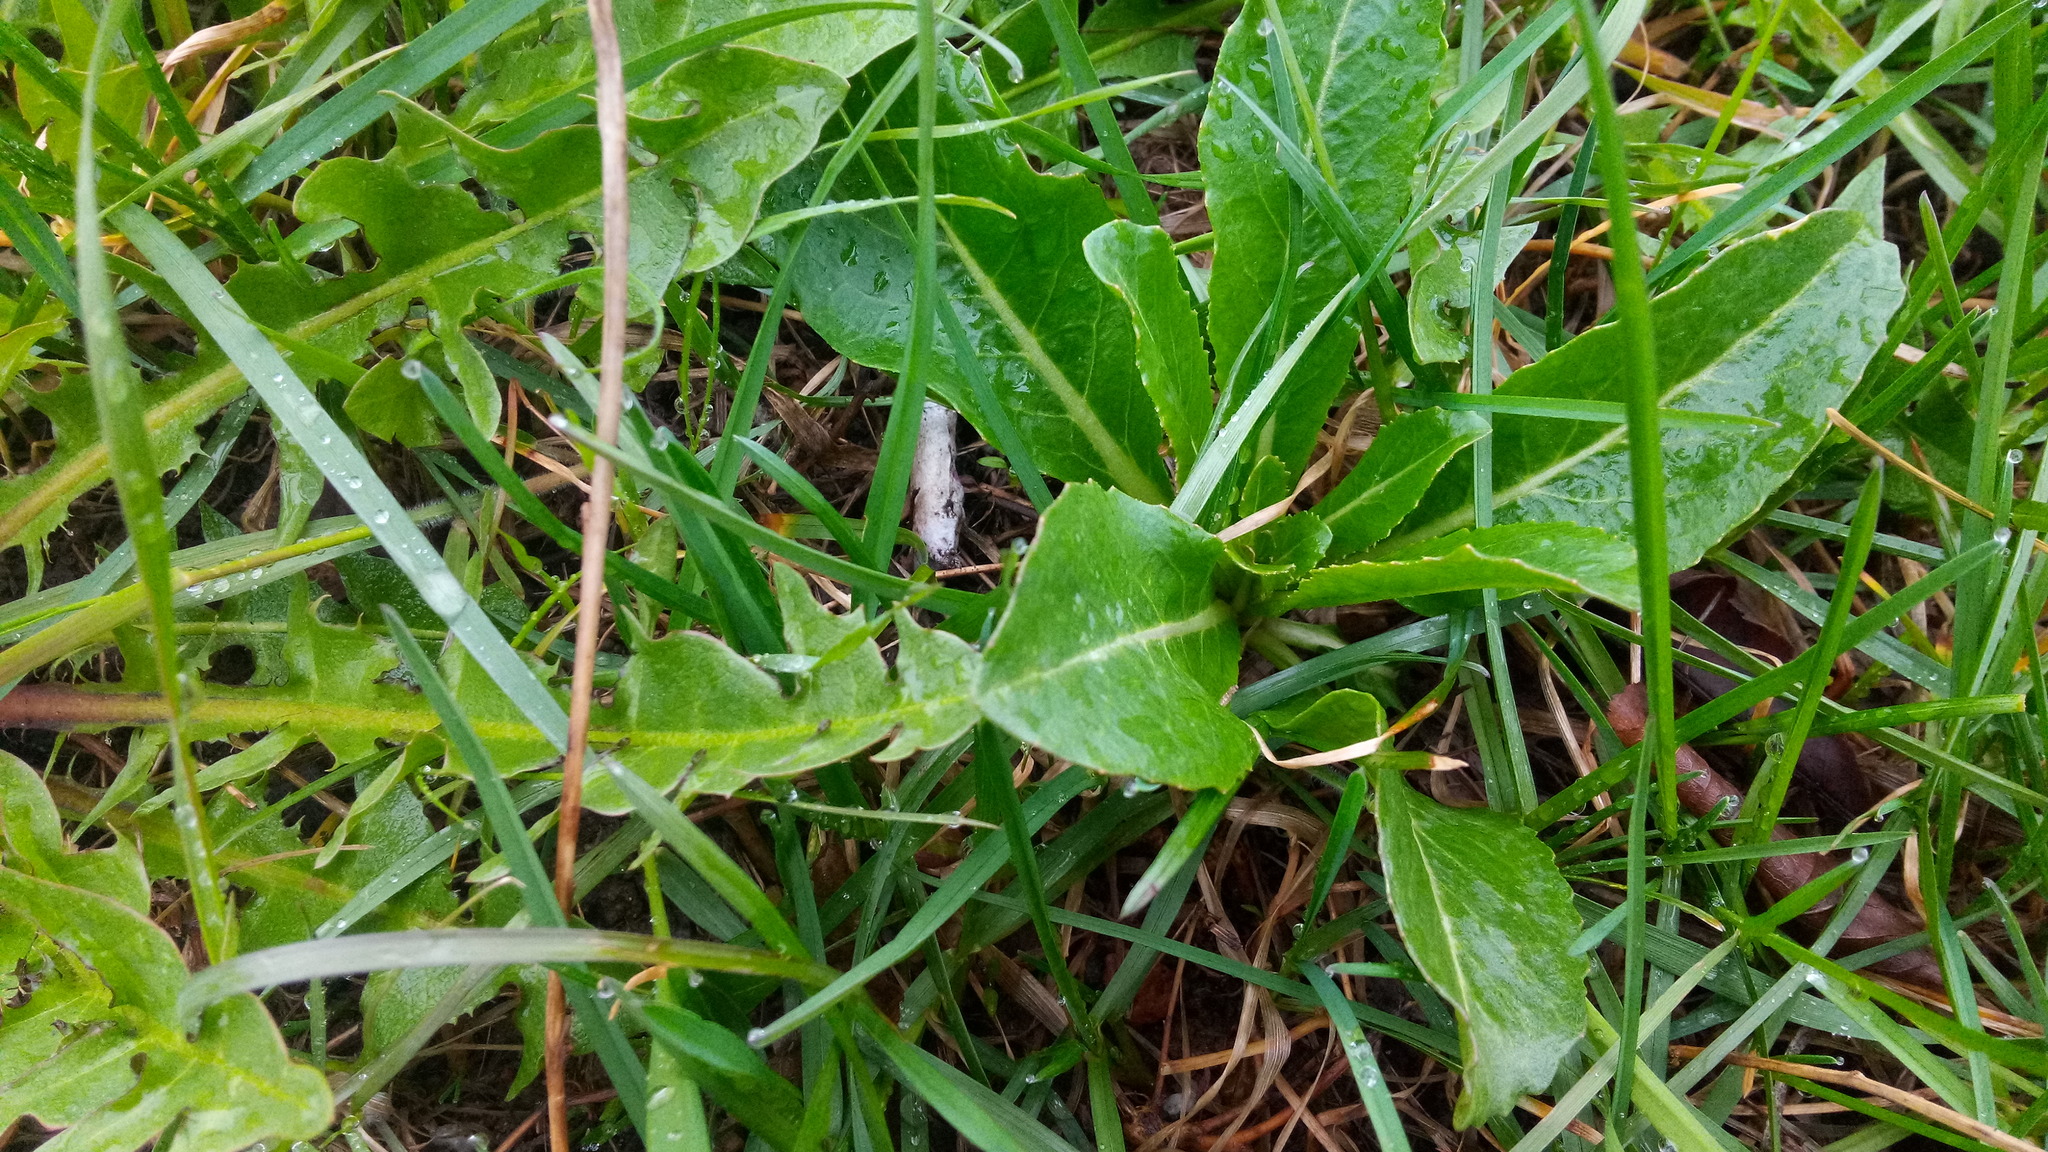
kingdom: Plantae
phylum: Tracheophyta
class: Magnoliopsida
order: Brassicales
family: Brassicaceae
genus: Armoracia
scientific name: Armoracia rusticana
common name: Horseradish
